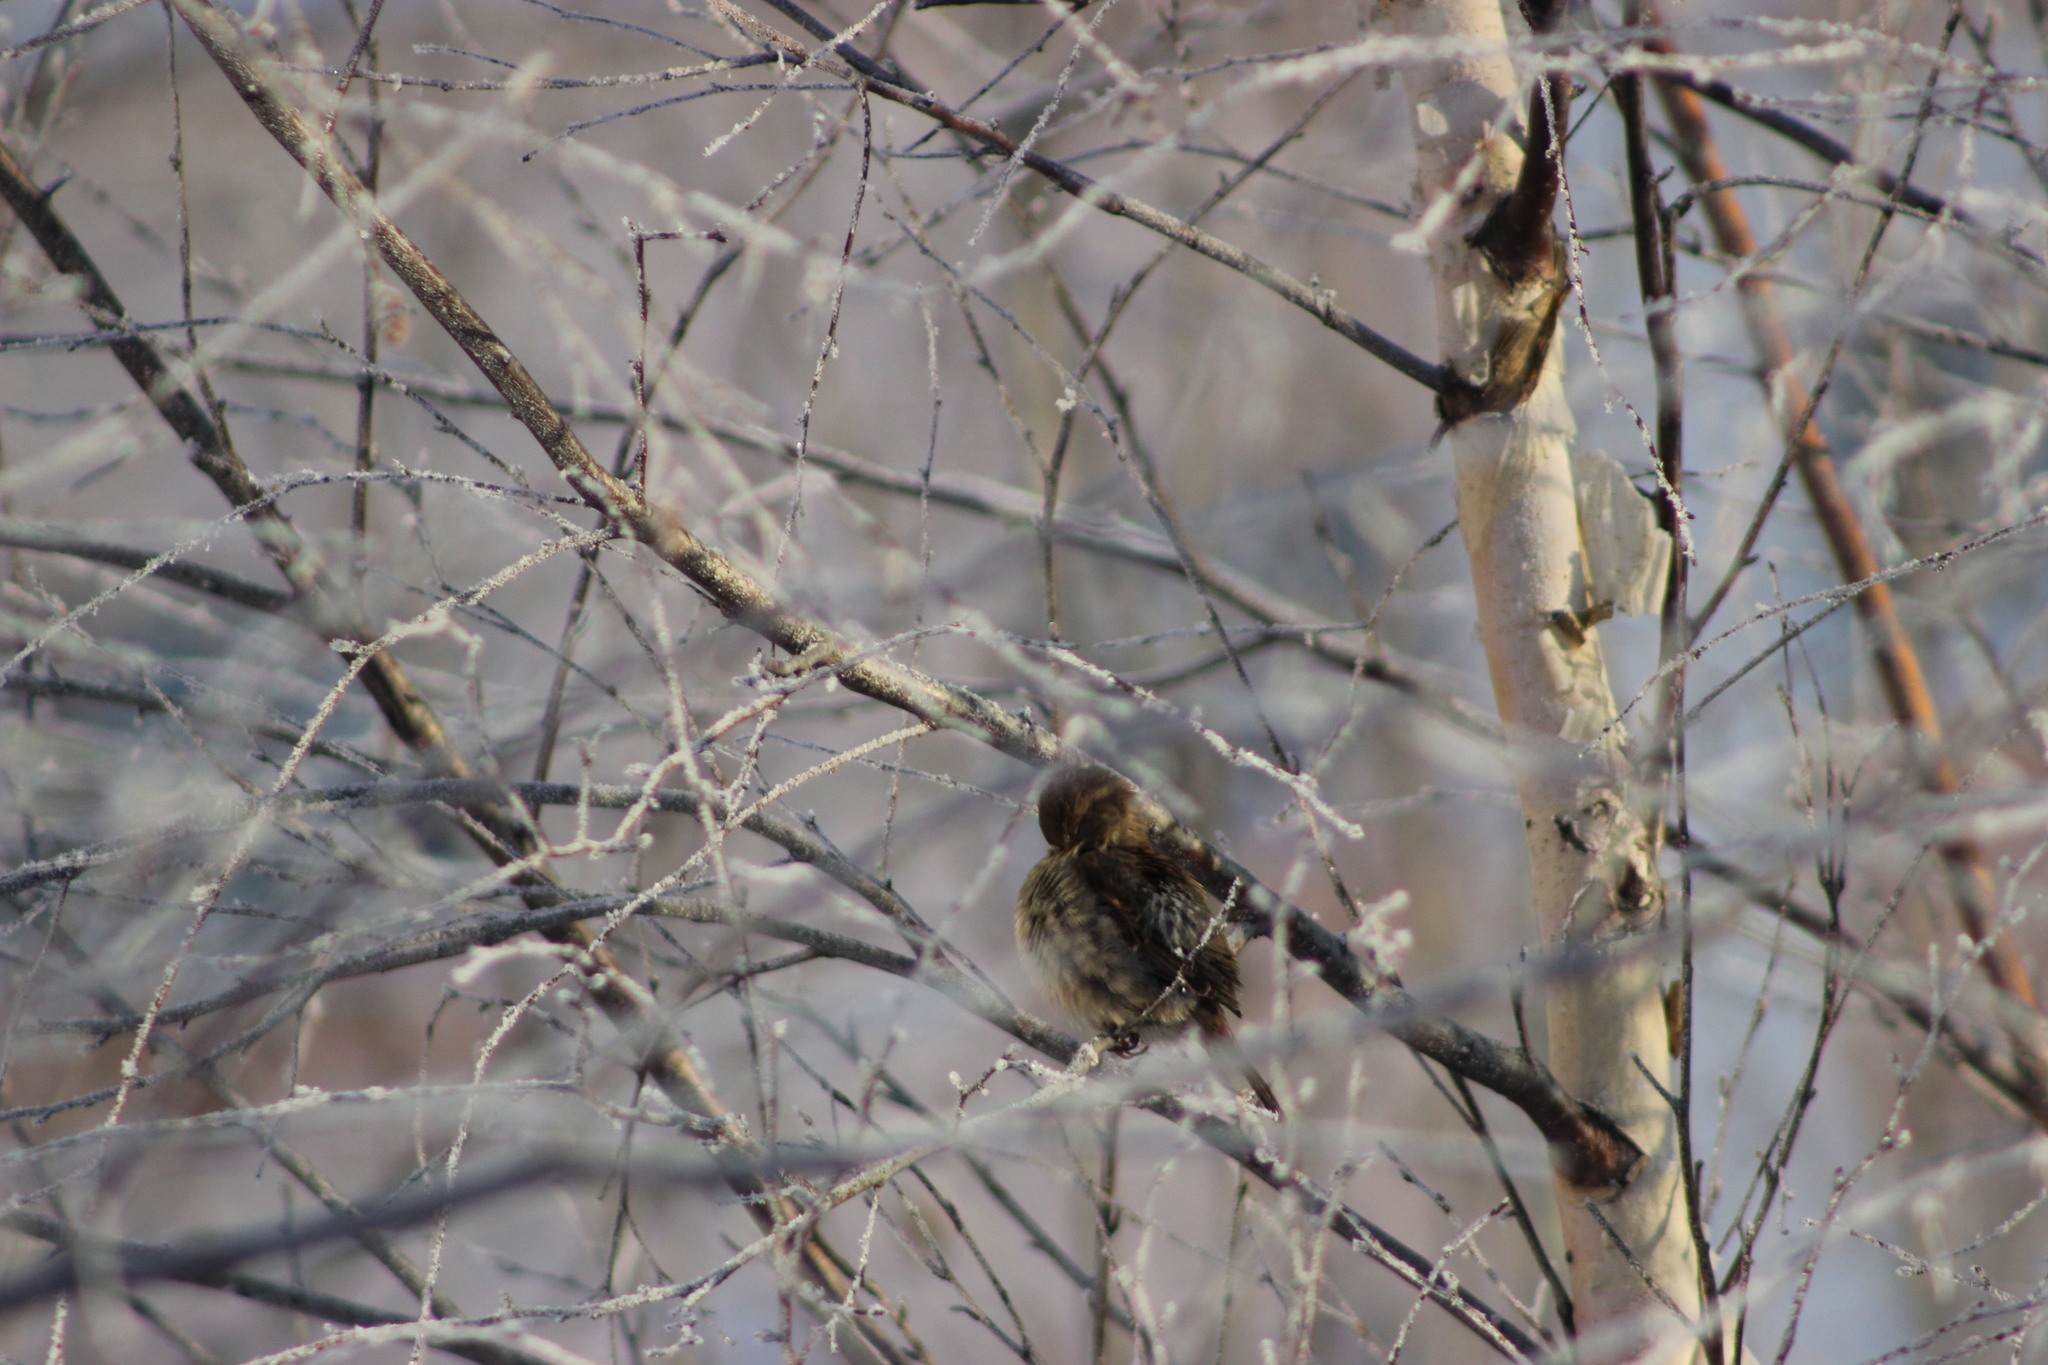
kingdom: Animalia
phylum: Chordata
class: Aves
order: Passeriformes
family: Passeridae
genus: Passer
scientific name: Passer domesticus
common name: House sparrow
